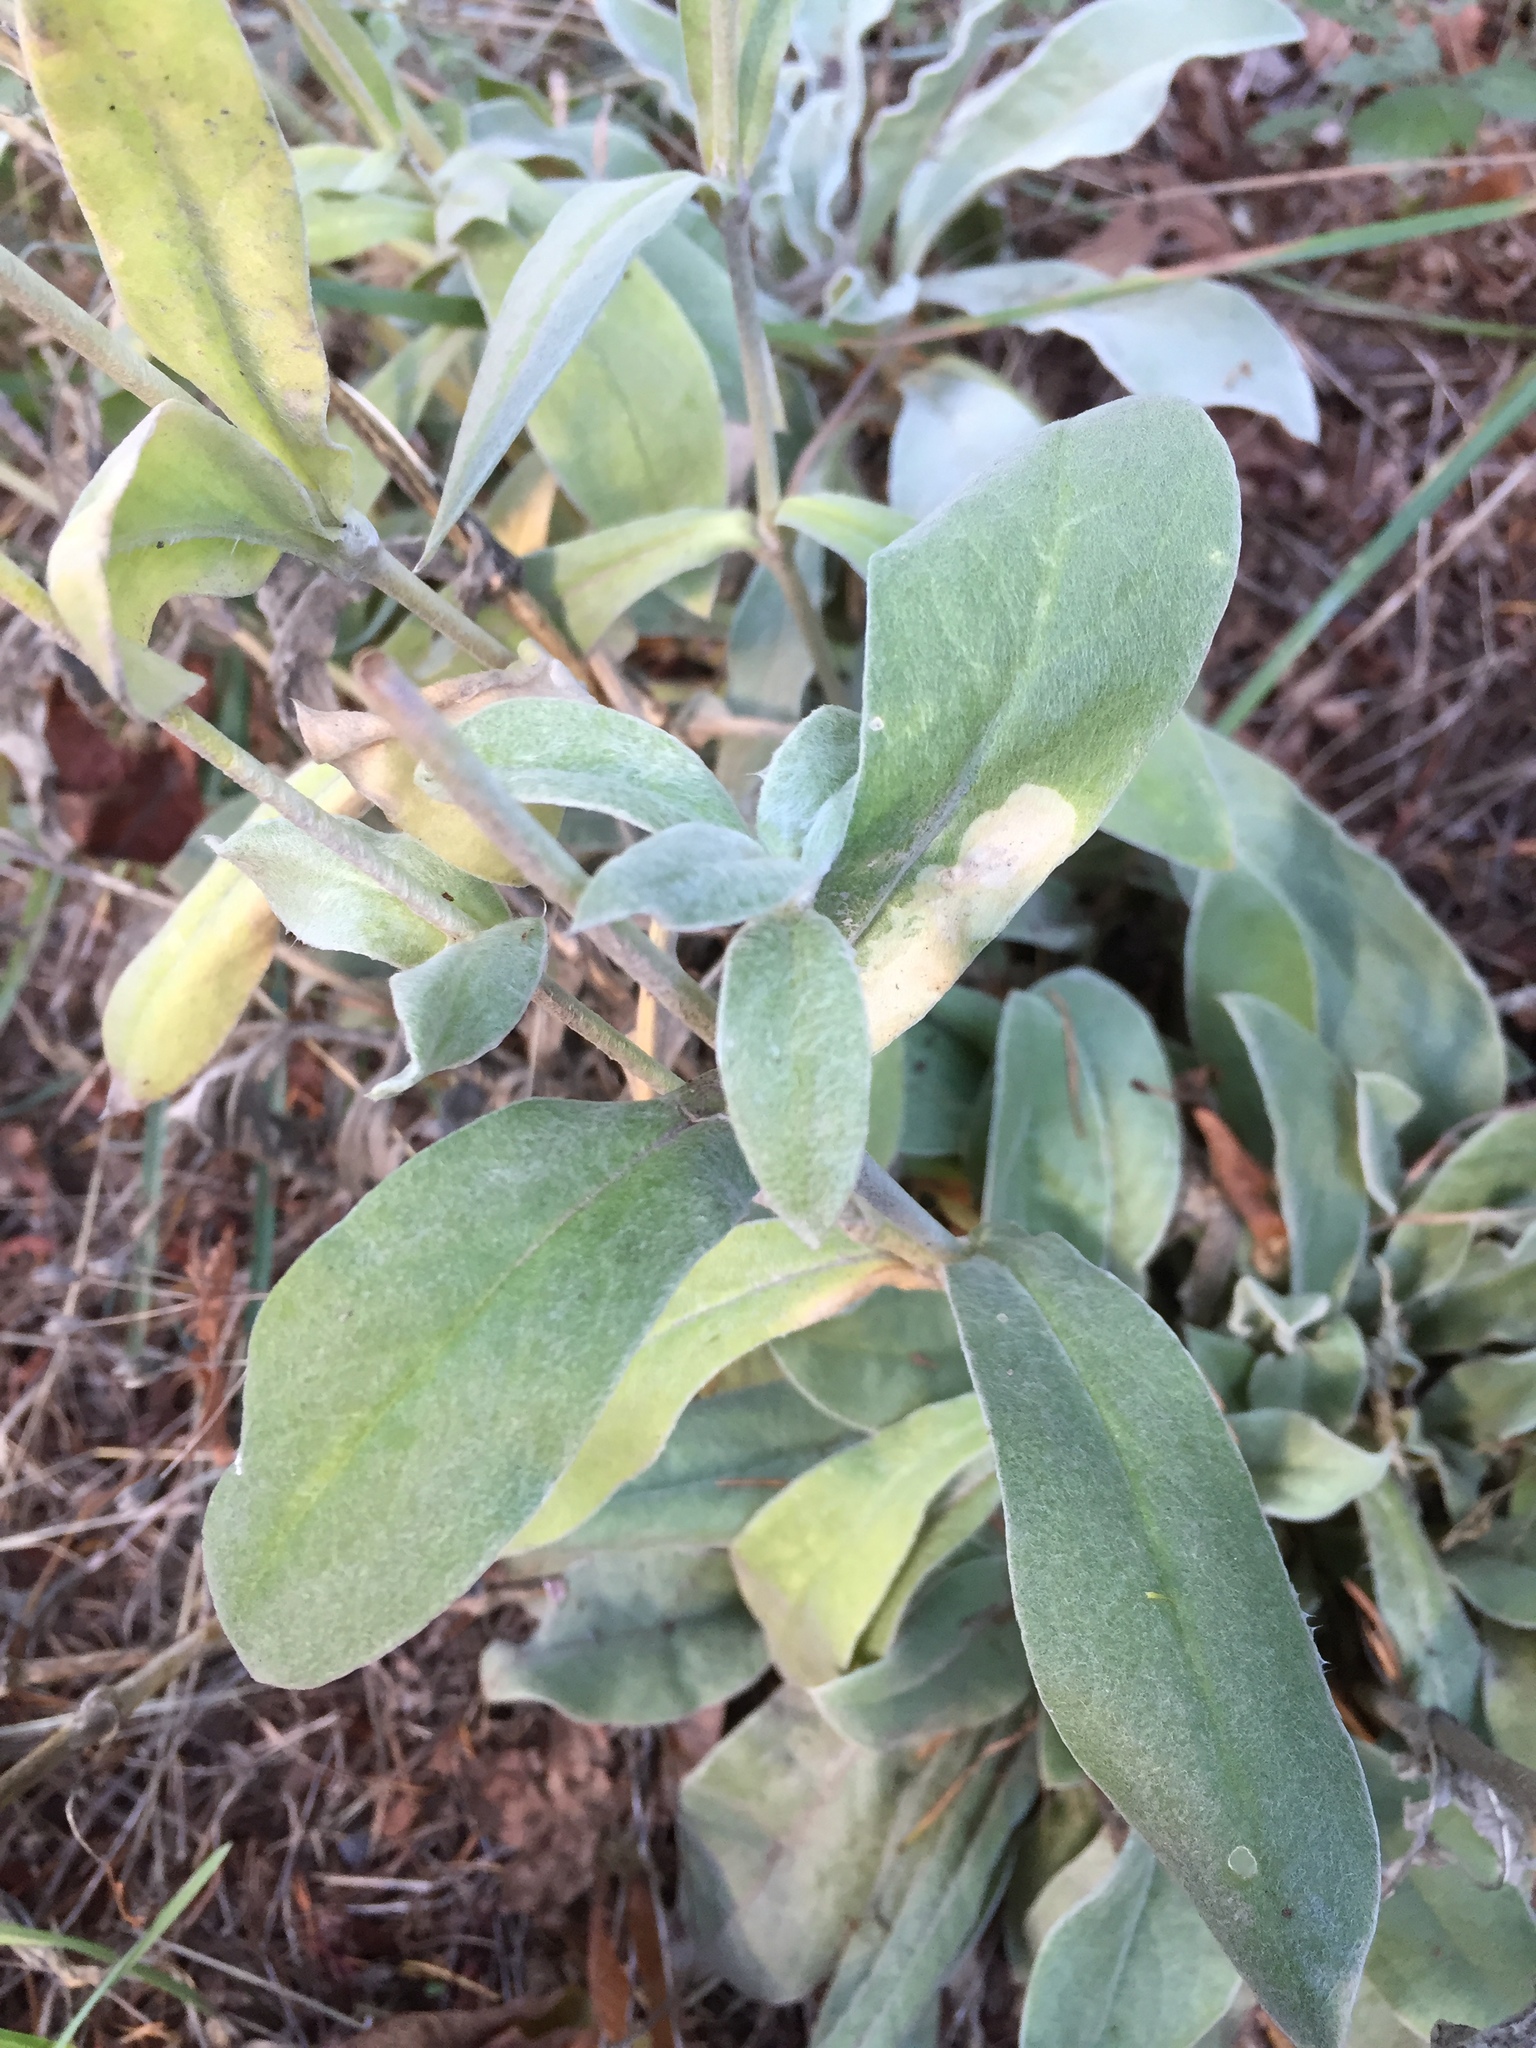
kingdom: Plantae
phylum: Tracheophyta
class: Magnoliopsida
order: Caryophyllales
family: Caryophyllaceae
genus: Silene
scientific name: Silene coronaria
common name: Rose campion
